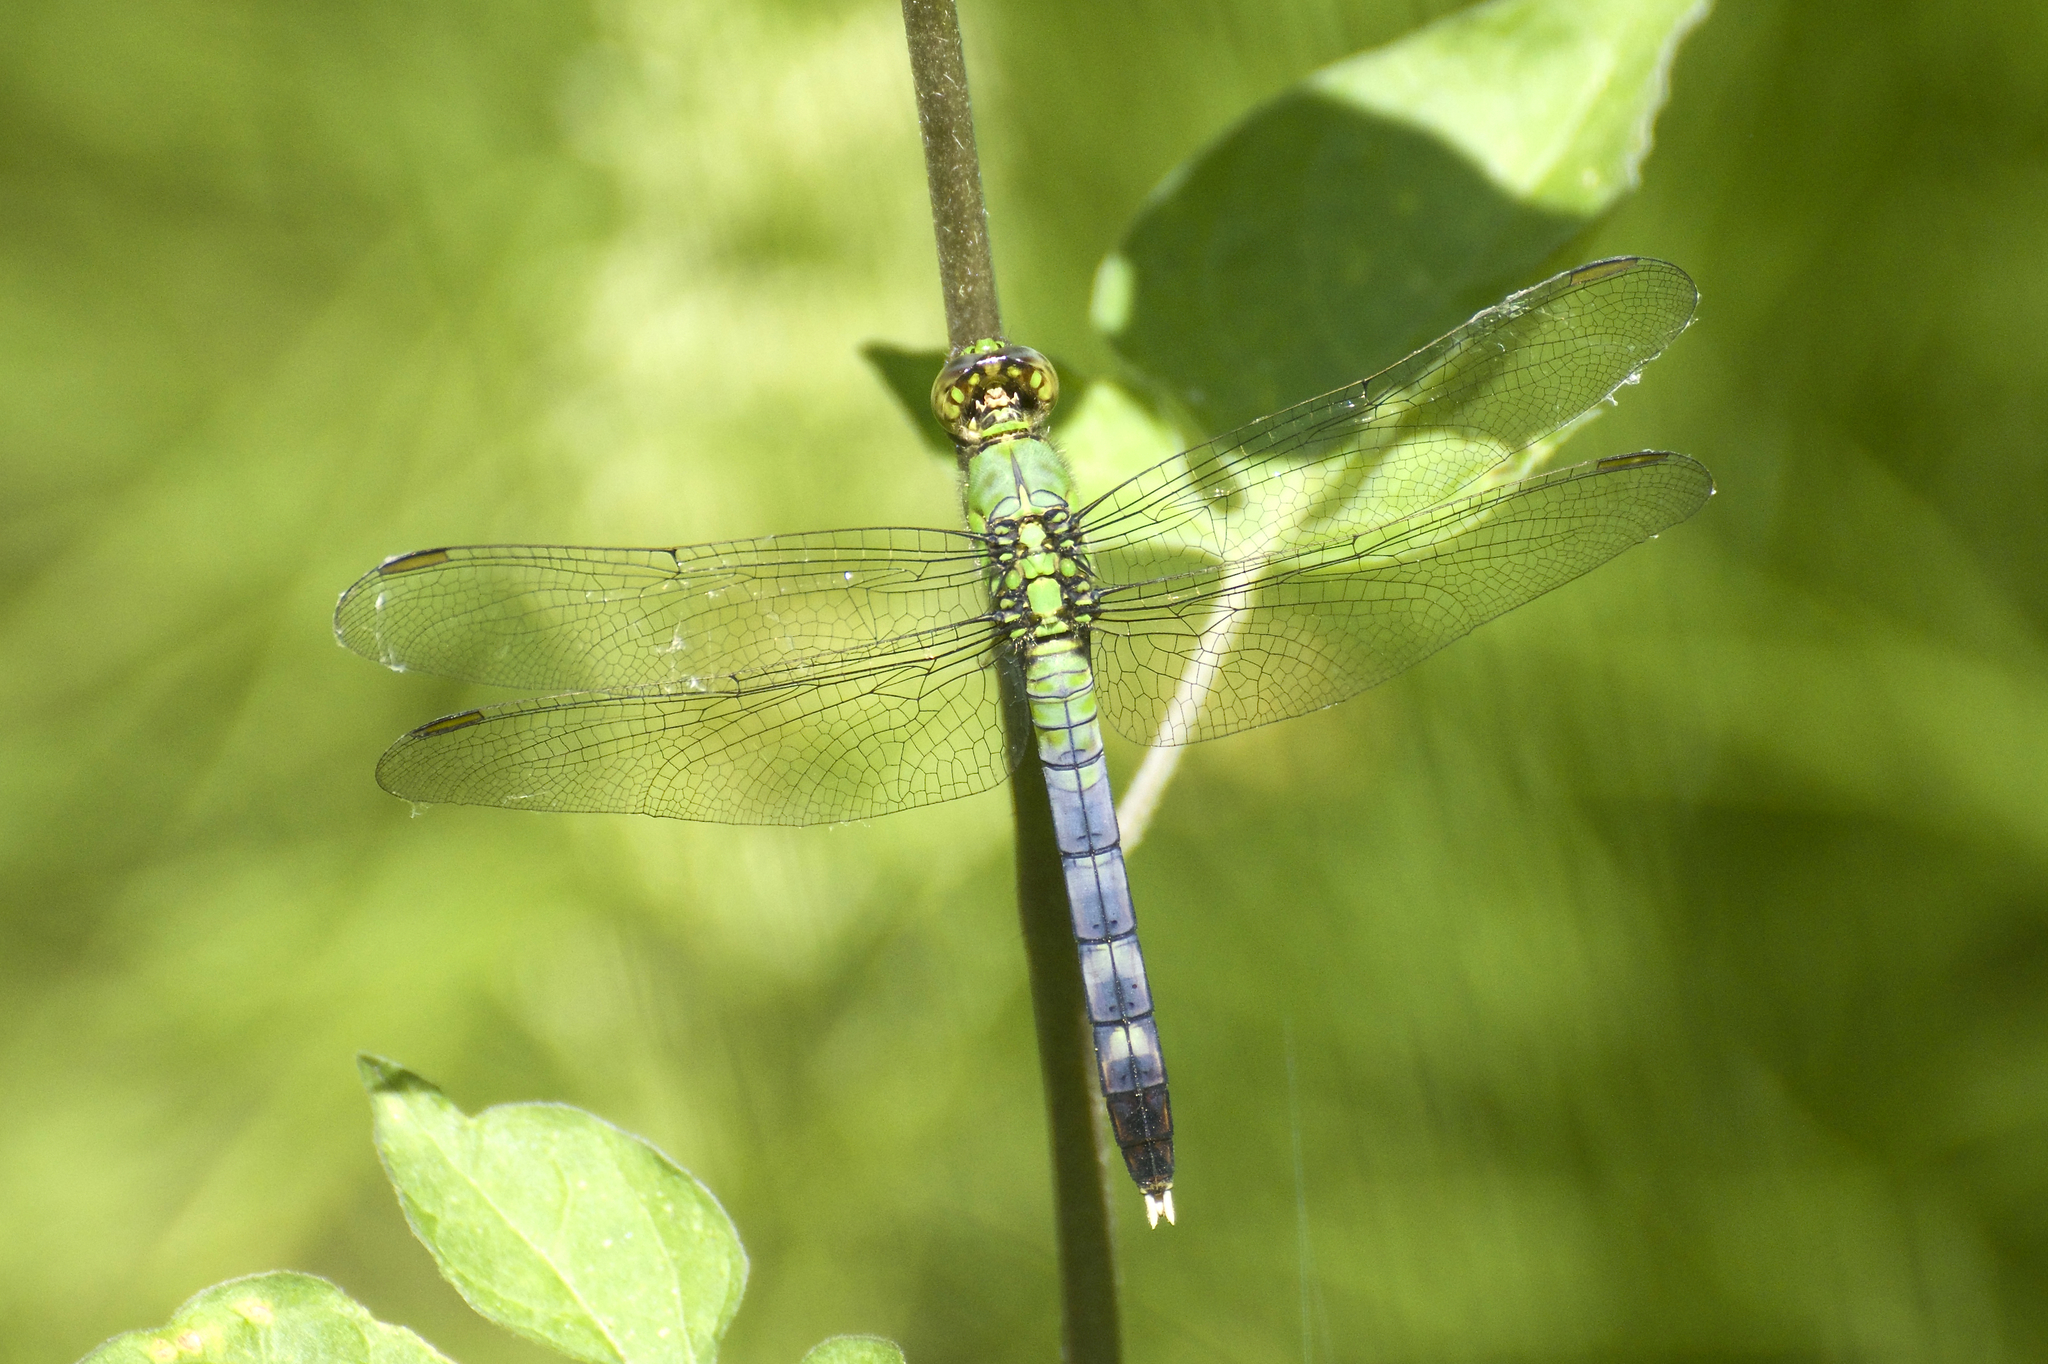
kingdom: Animalia
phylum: Arthropoda
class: Insecta
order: Odonata
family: Libellulidae
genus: Erythemis
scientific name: Erythemis simplicicollis
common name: Eastern pondhawk
